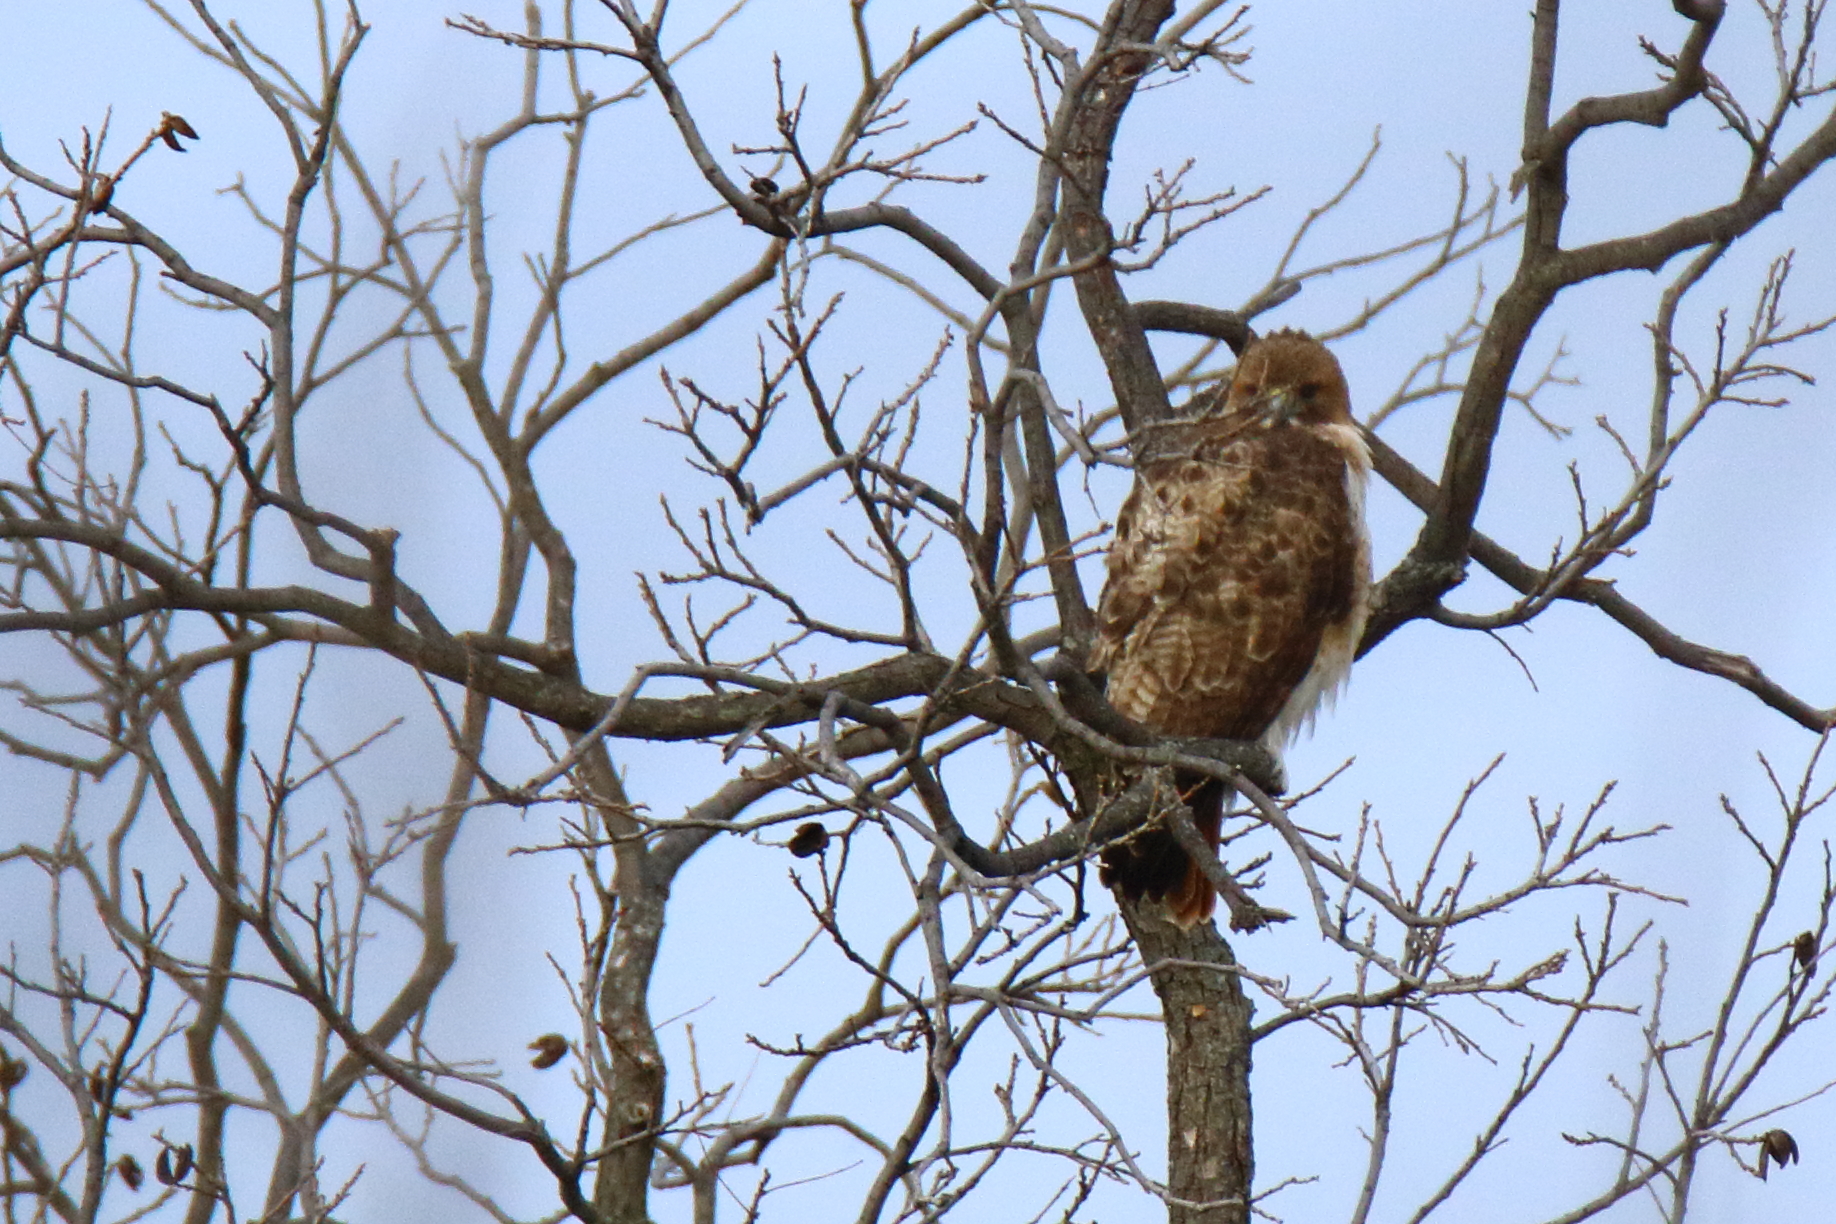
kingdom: Animalia
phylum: Chordata
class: Aves
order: Accipitriformes
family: Accipitridae
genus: Buteo
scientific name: Buteo jamaicensis
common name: Red-tailed hawk
